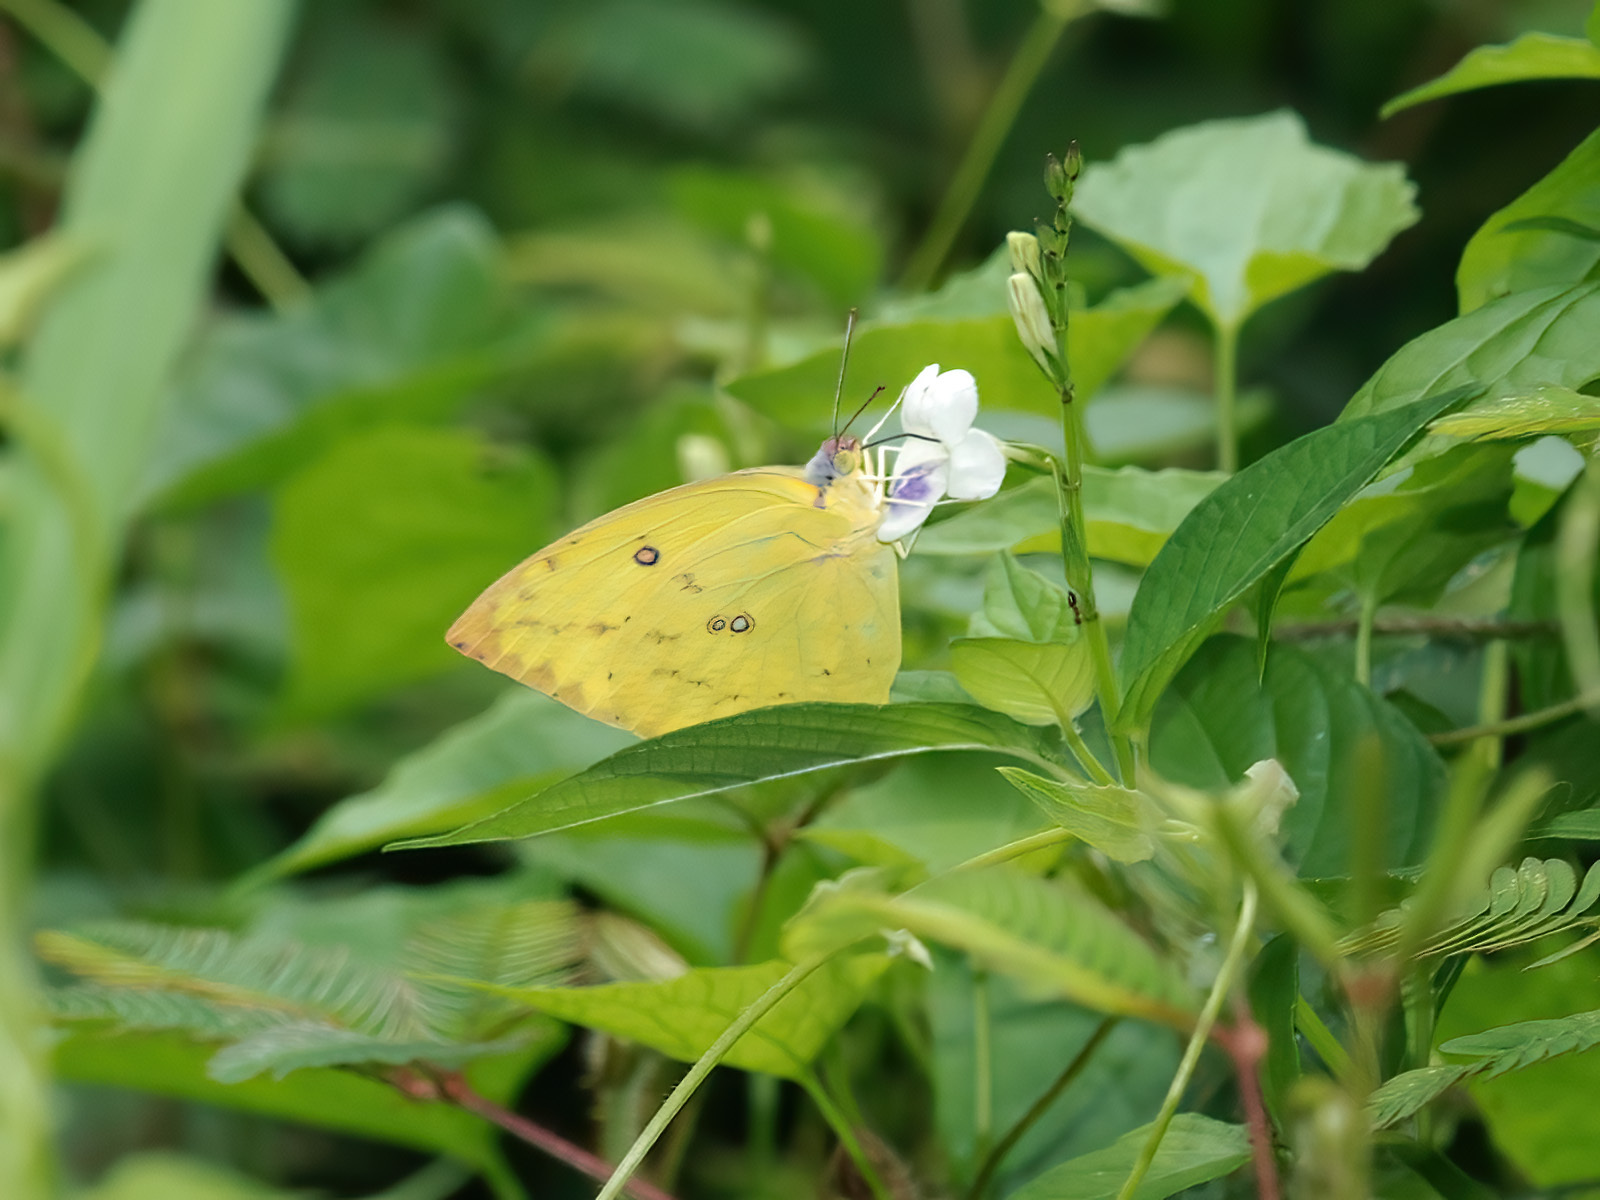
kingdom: Animalia
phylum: Arthropoda
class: Insecta
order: Lepidoptera
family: Pieridae
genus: Catopsilia
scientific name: Catopsilia pomona
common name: Common emigrant
